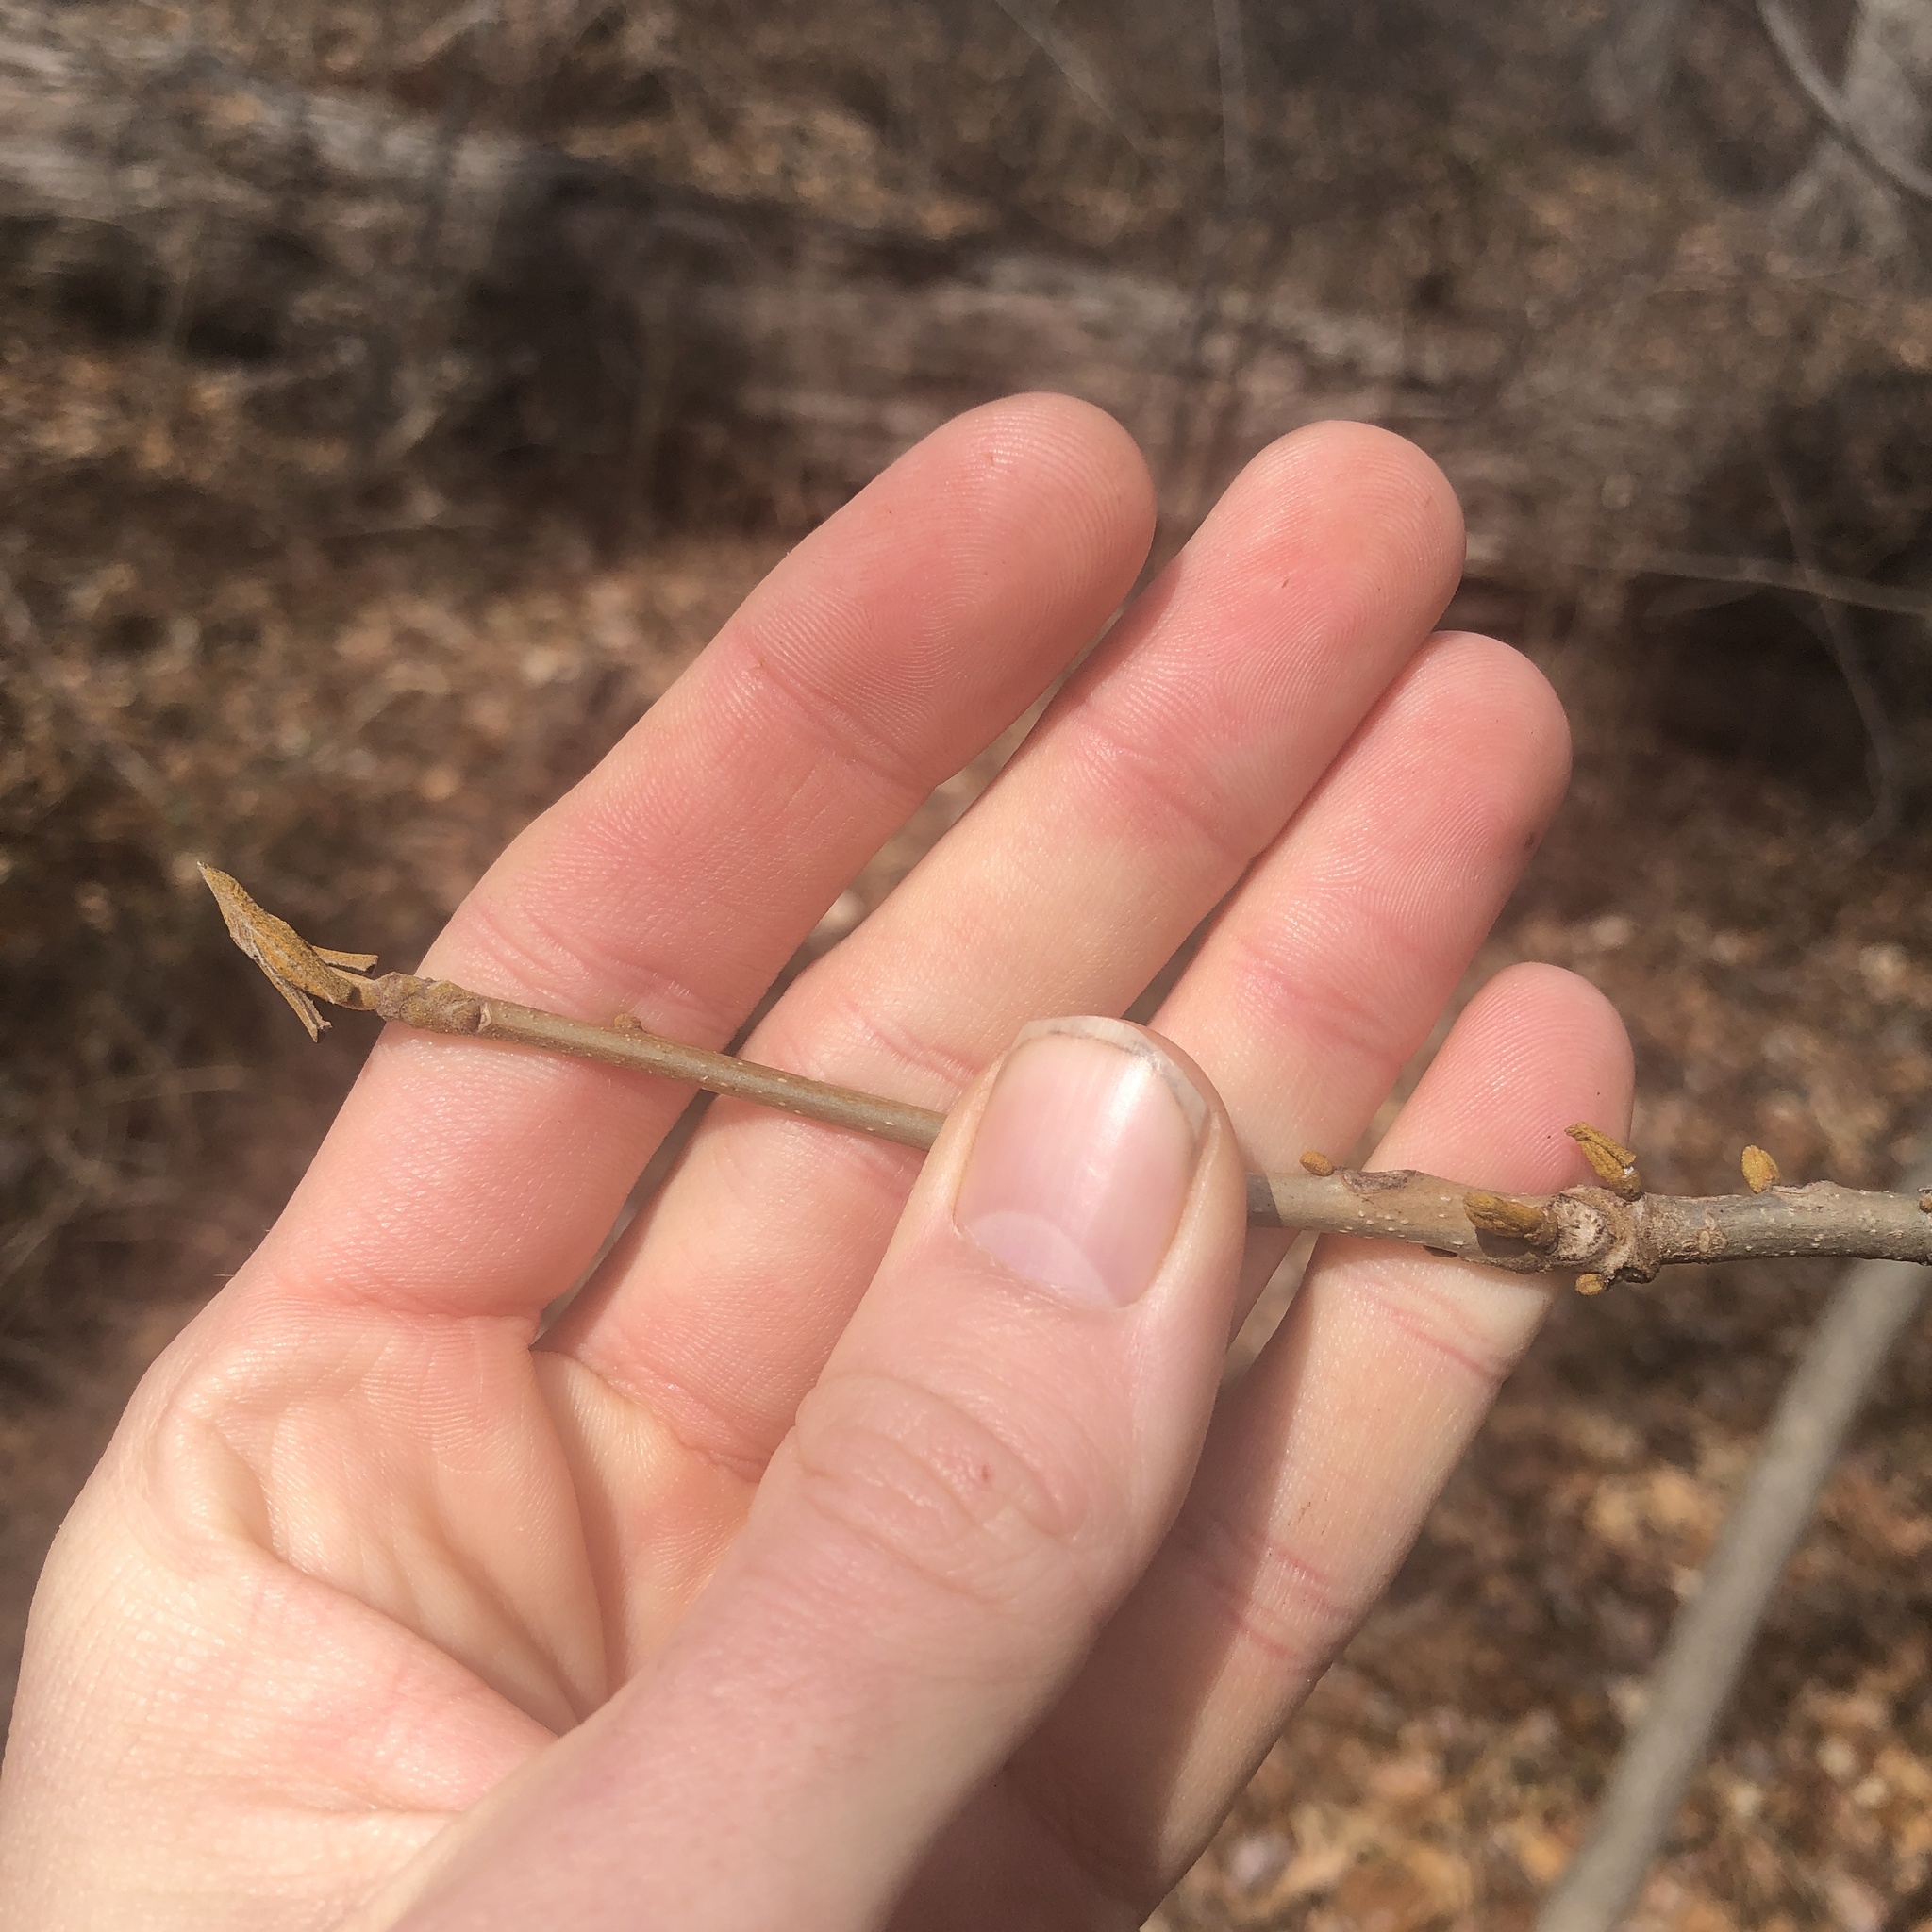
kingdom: Plantae
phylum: Tracheophyta
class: Magnoliopsida
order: Fagales
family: Juglandaceae
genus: Carya
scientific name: Carya cordiformis
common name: Bitternut hickory
